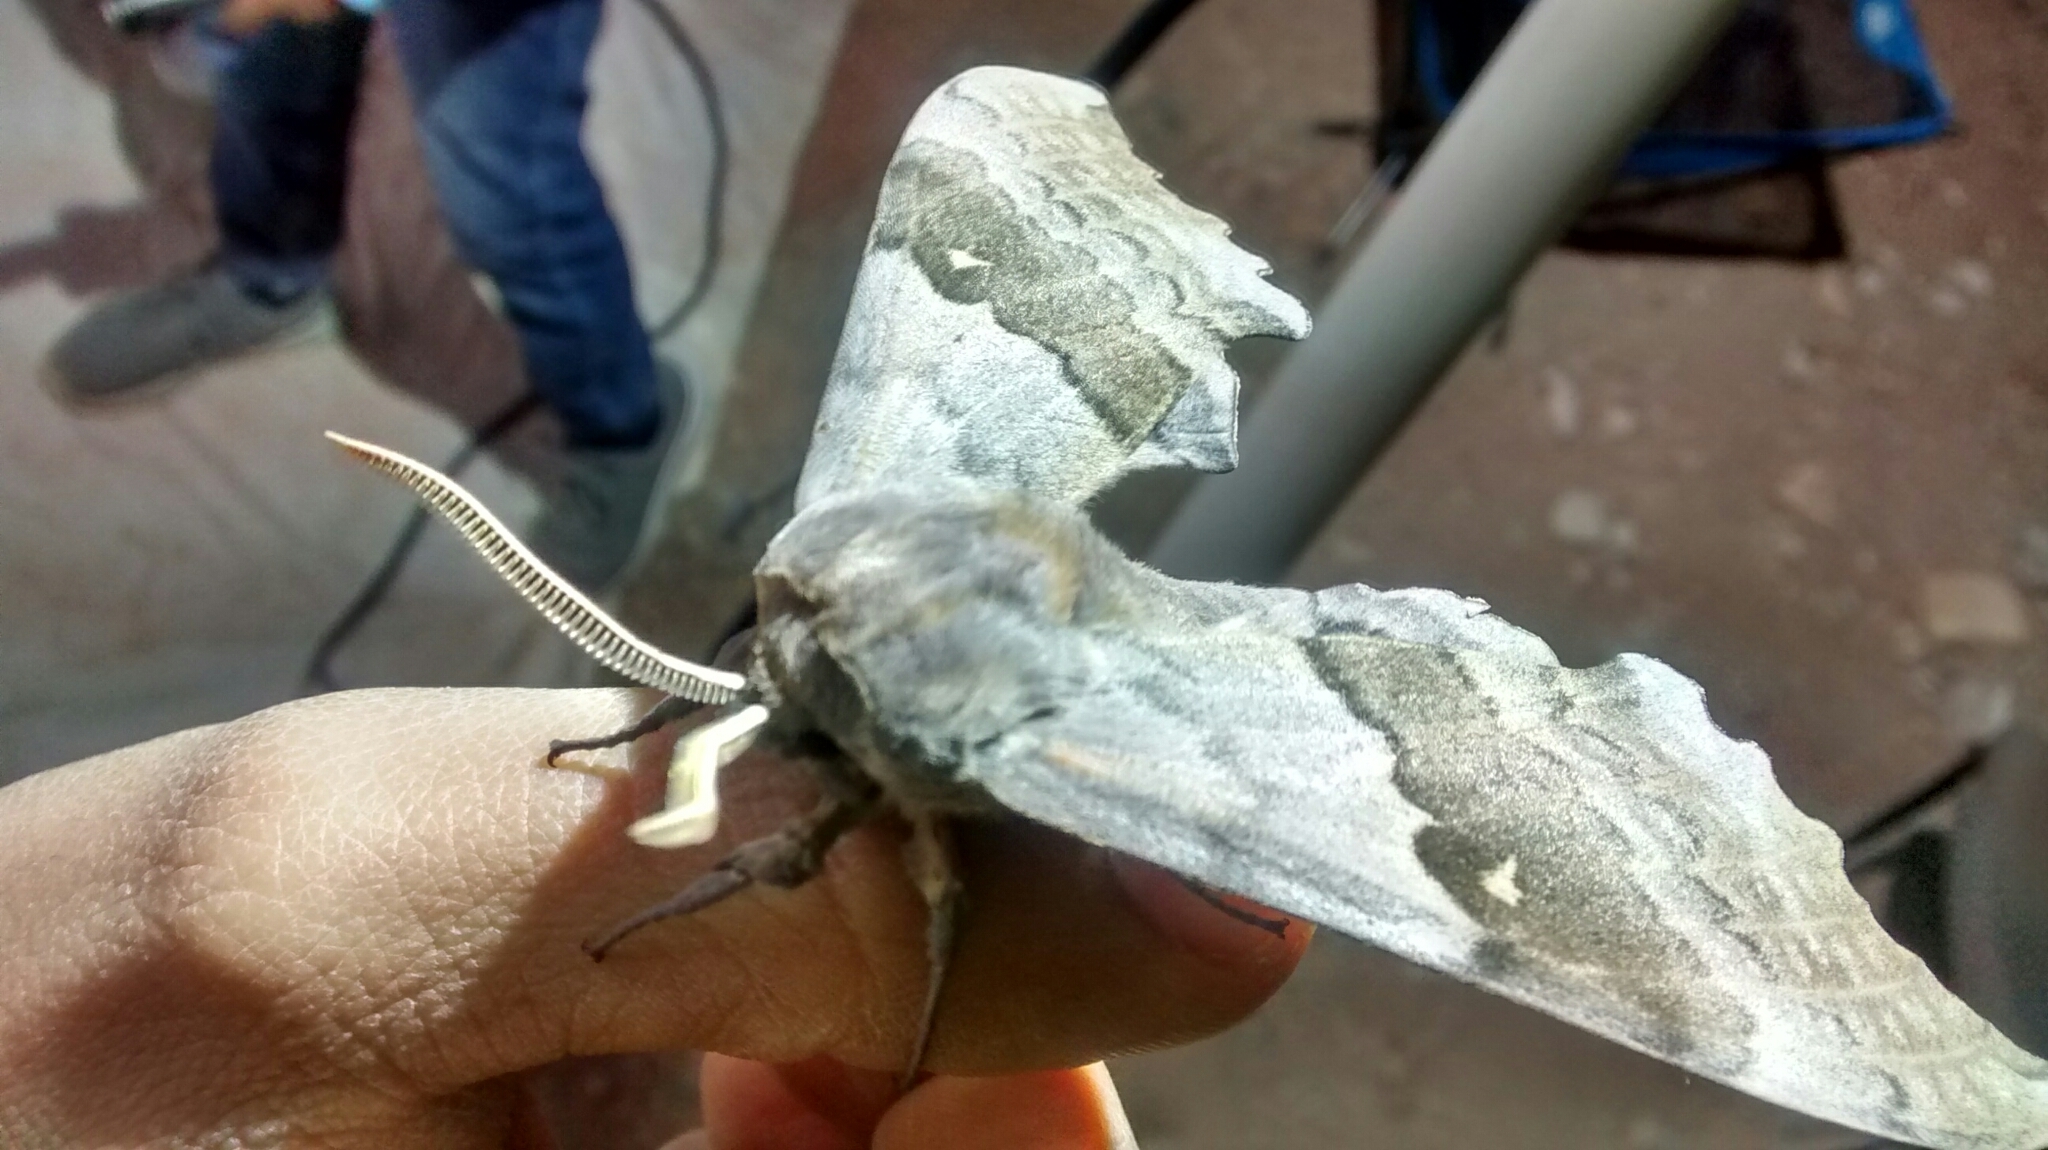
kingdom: Animalia
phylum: Arthropoda
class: Insecta
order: Lepidoptera
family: Sphingidae
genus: Pachysphinx
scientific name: Pachysphinx occidentalis
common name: Western poplar sphinx
